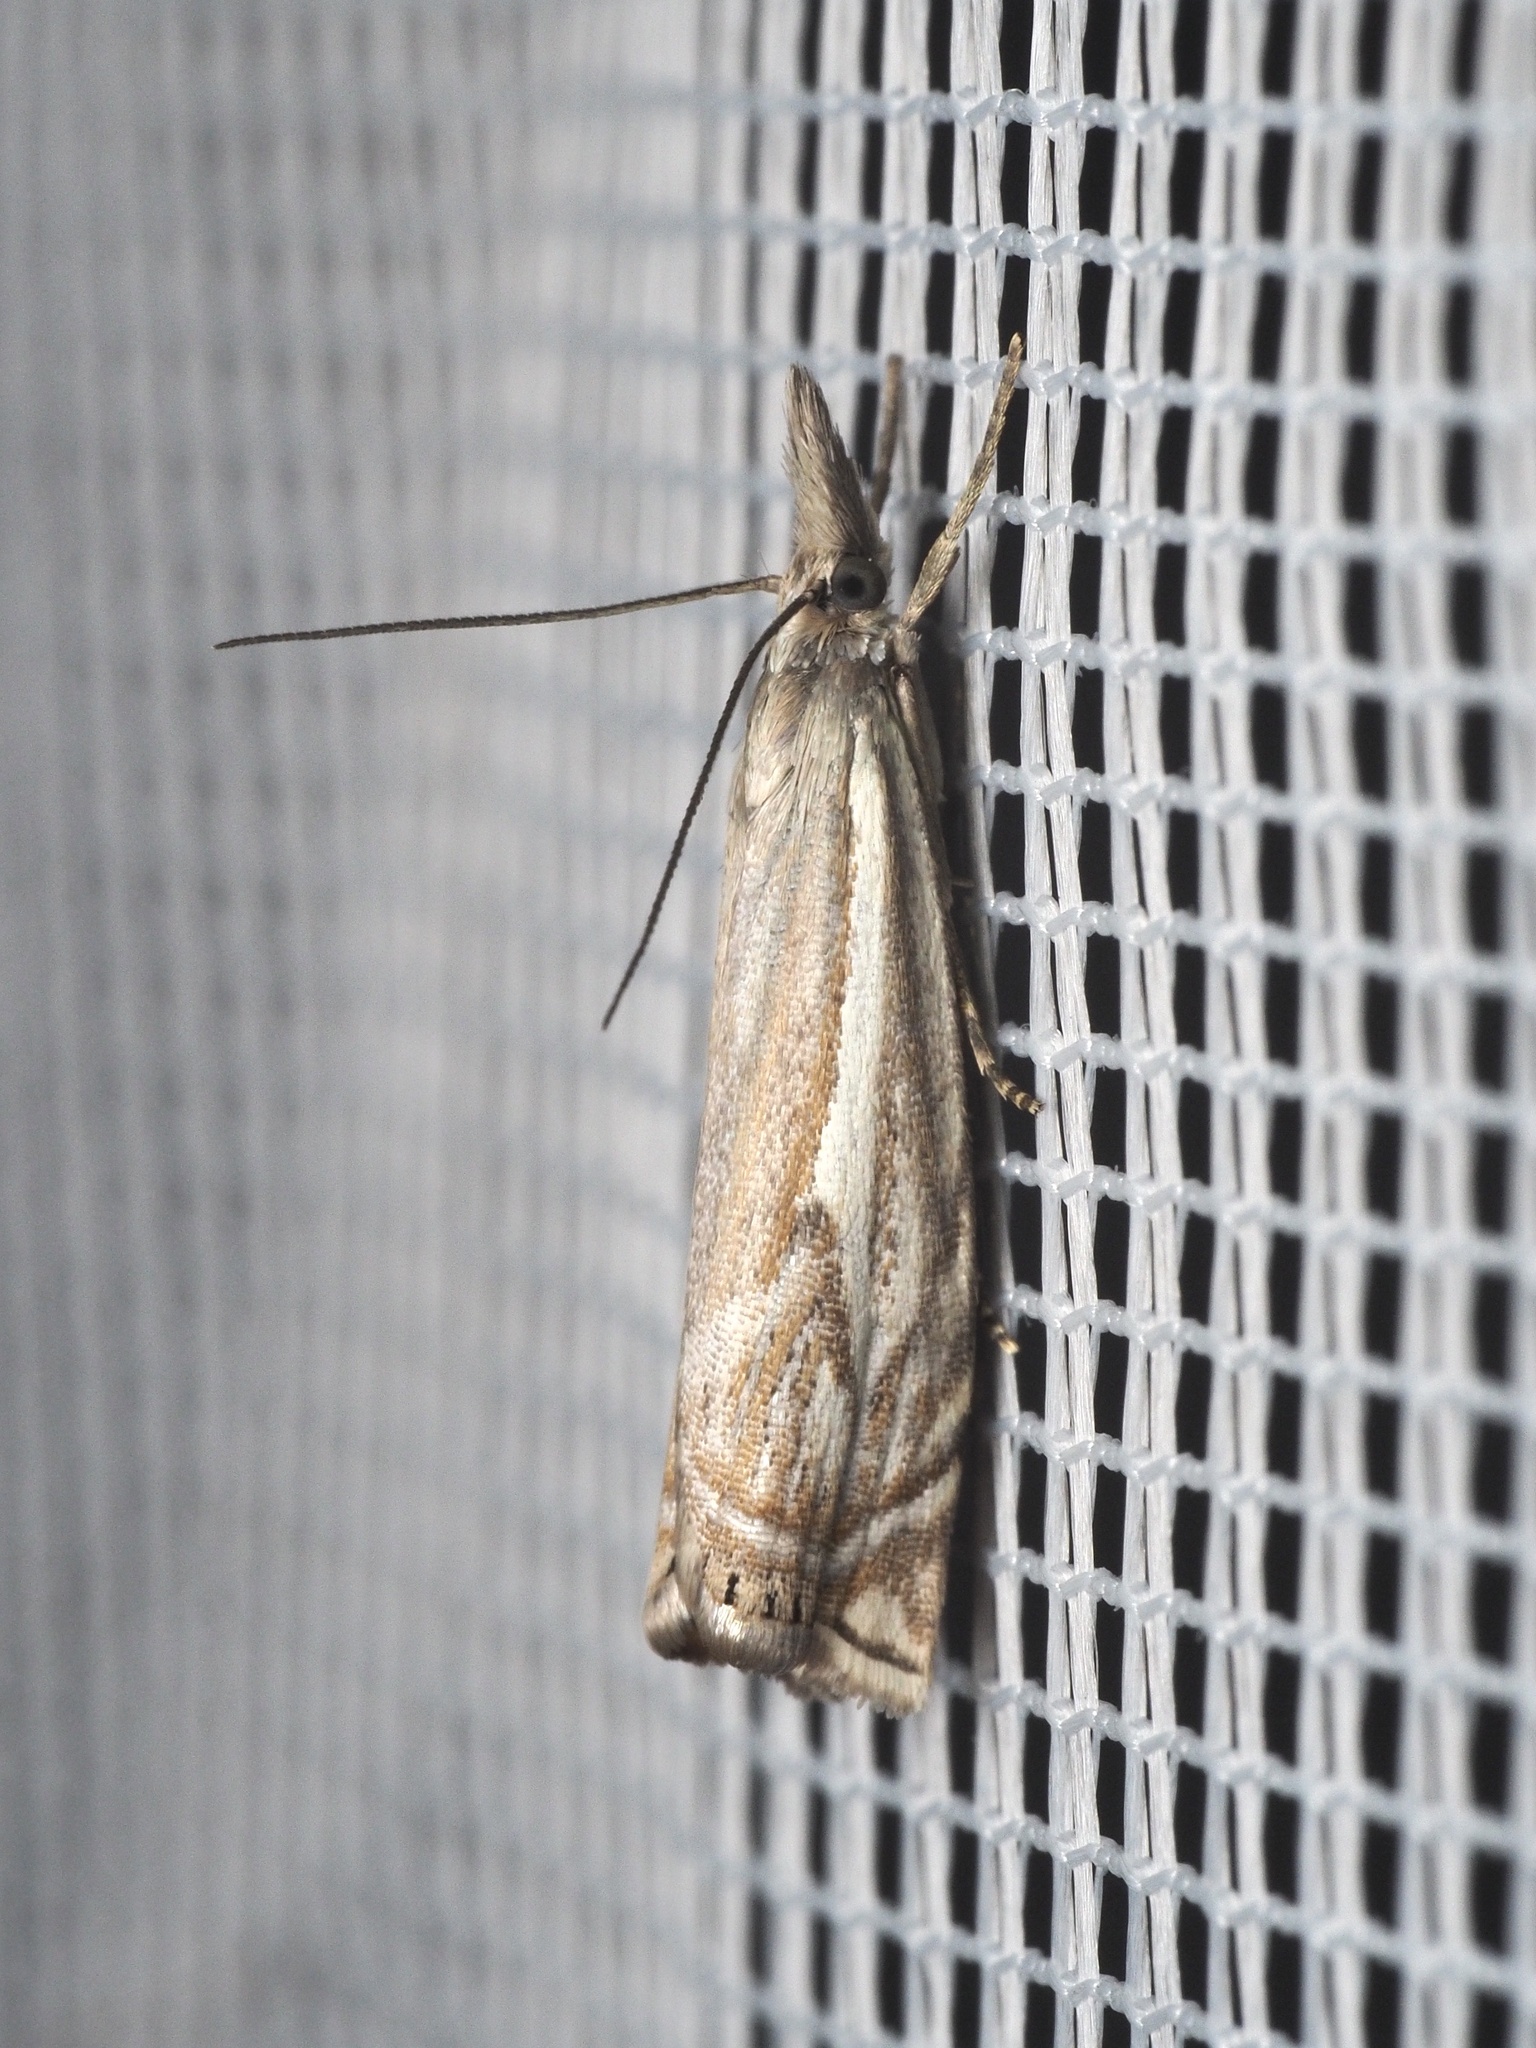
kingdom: Animalia
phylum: Arthropoda
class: Insecta
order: Lepidoptera
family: Crambidae
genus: Crambus
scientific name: Crambus nemorella
